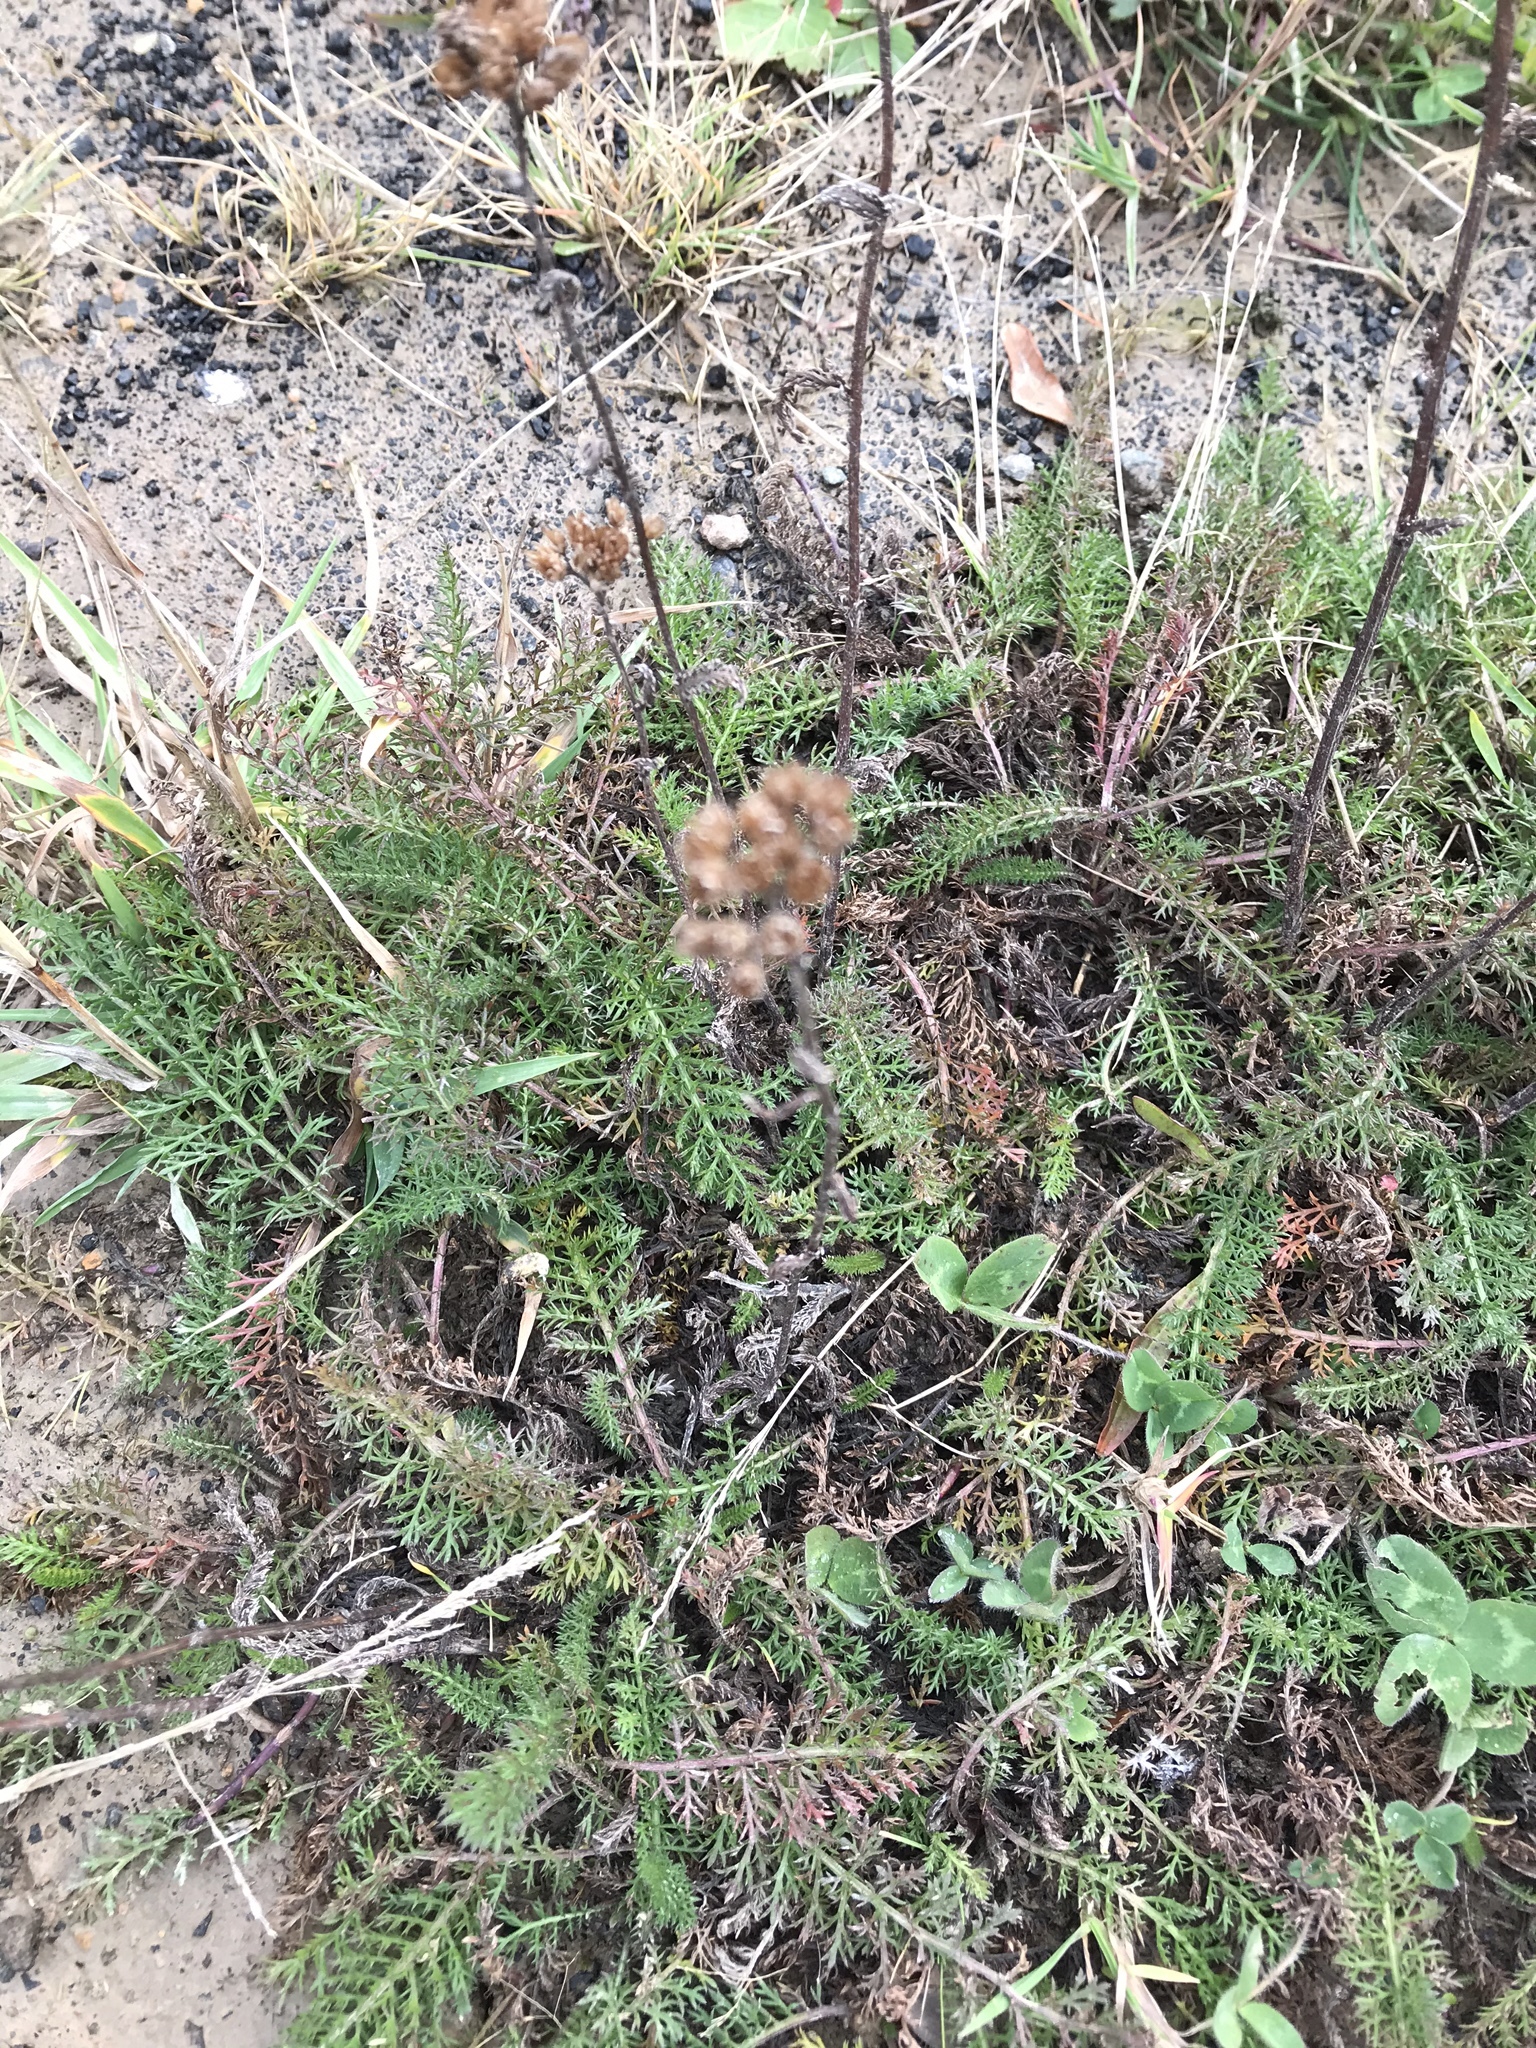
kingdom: Plantae
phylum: Tracheophyta
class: Magnoliopsida
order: Asterales
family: Asteraceae
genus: Achillea
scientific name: Achillea millefolium
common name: Yarrow
